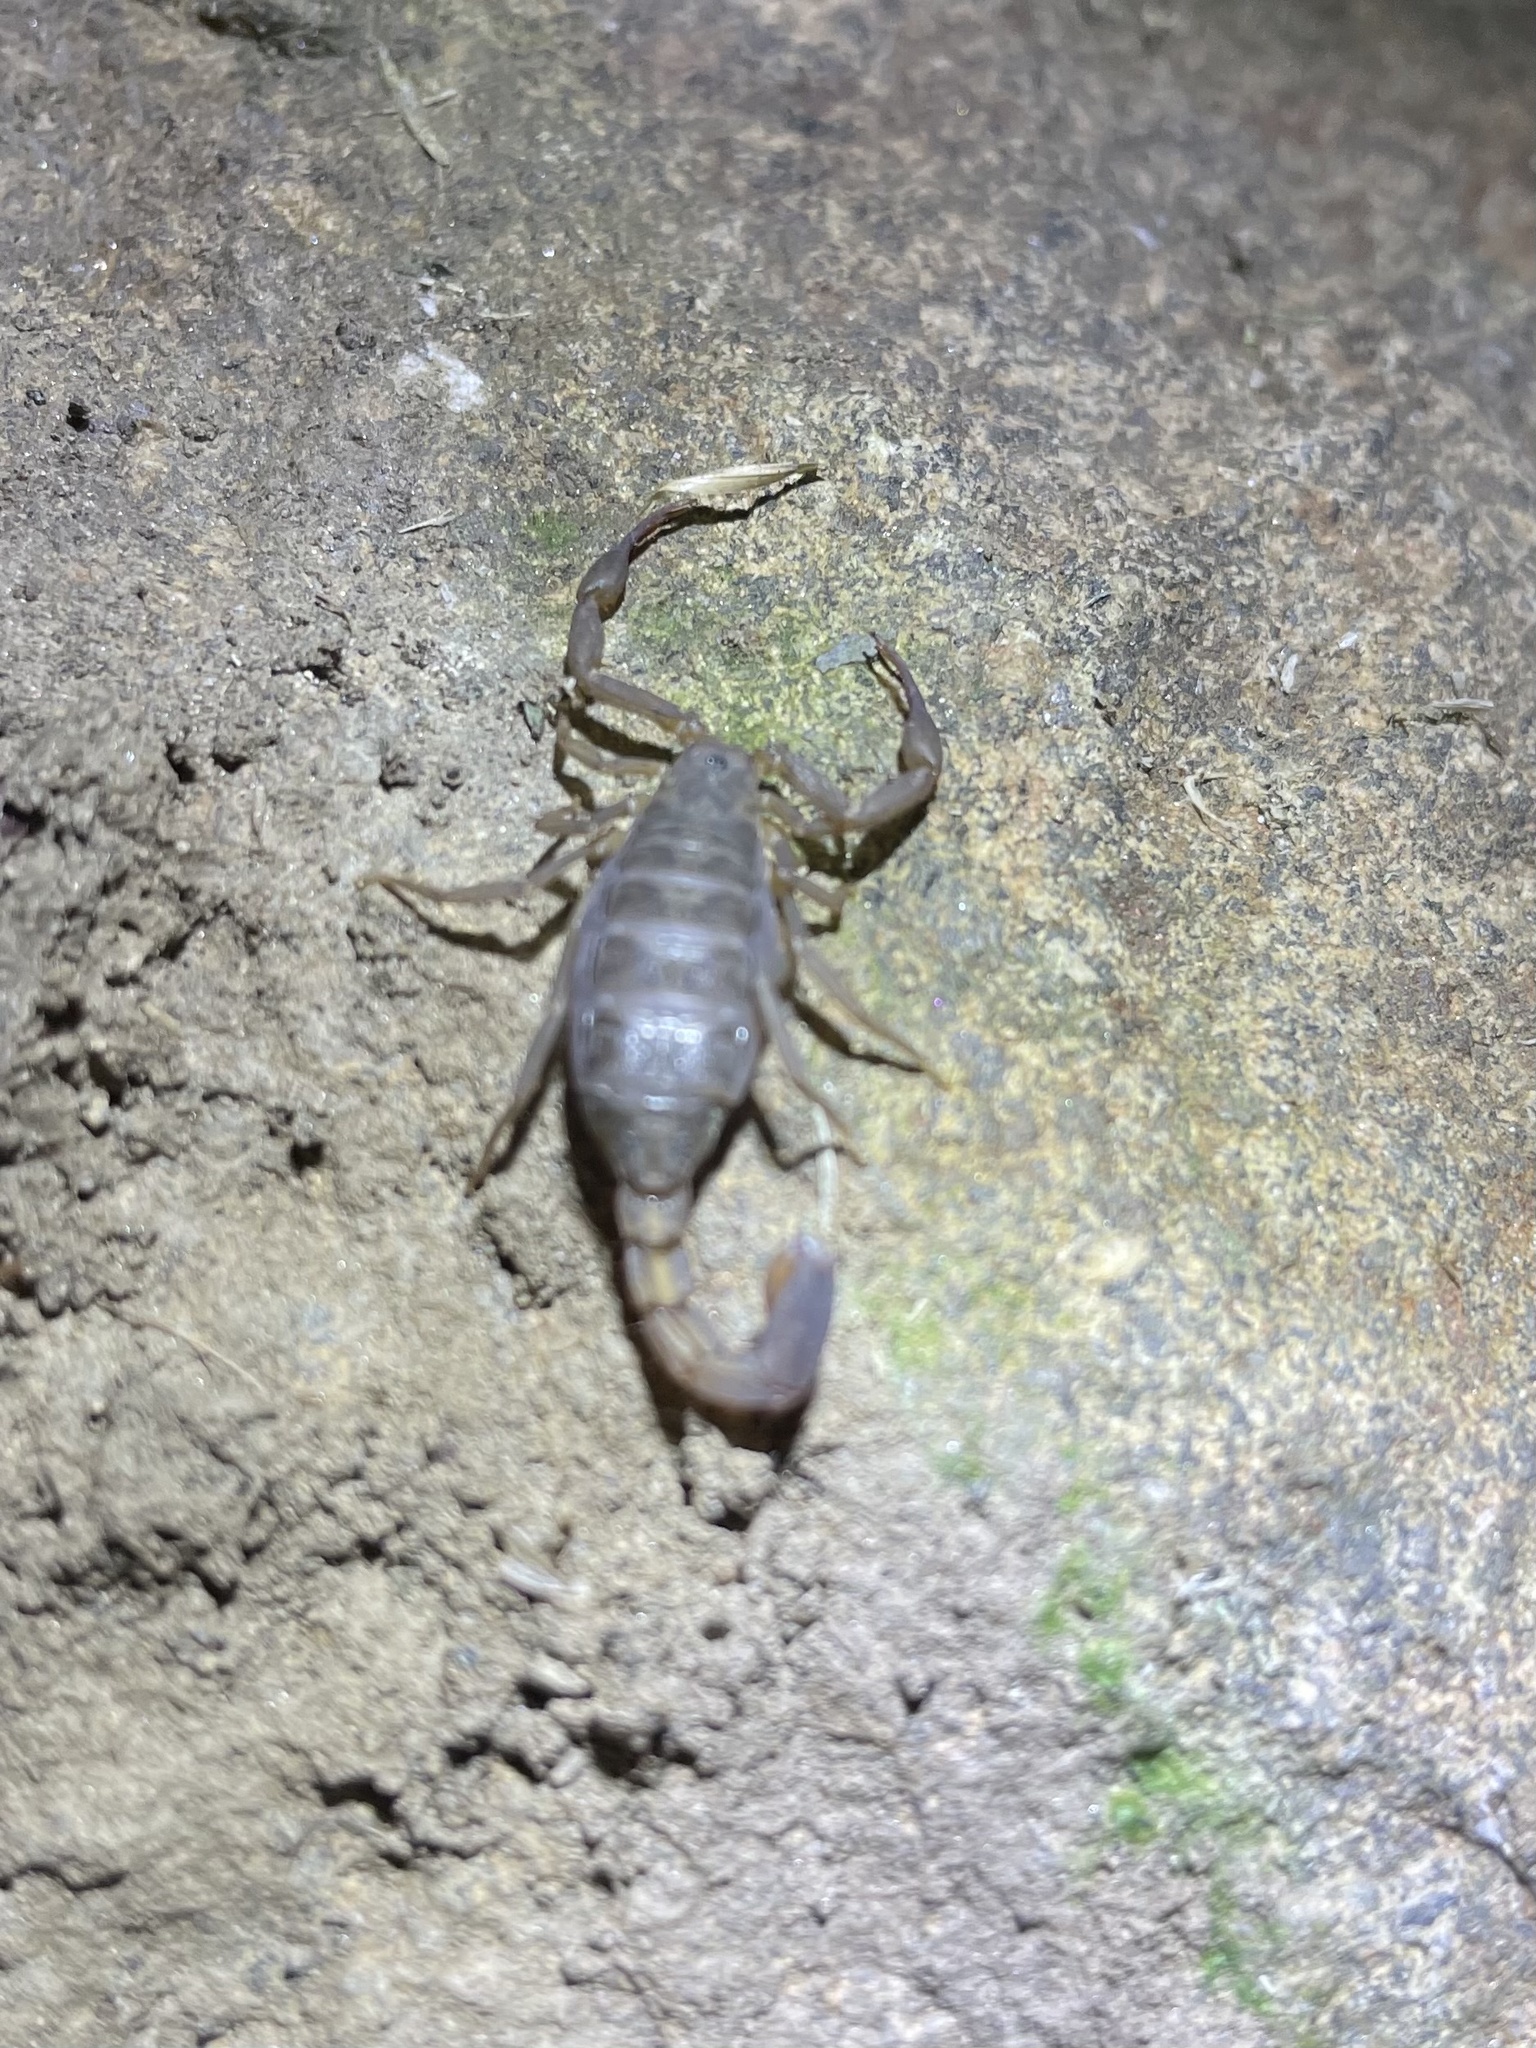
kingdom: Animalia
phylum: Arthropoda
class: Arachnida
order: Scorpiones
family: Vaejovidae
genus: Serradigitus
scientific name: Serradigitus gertschi
